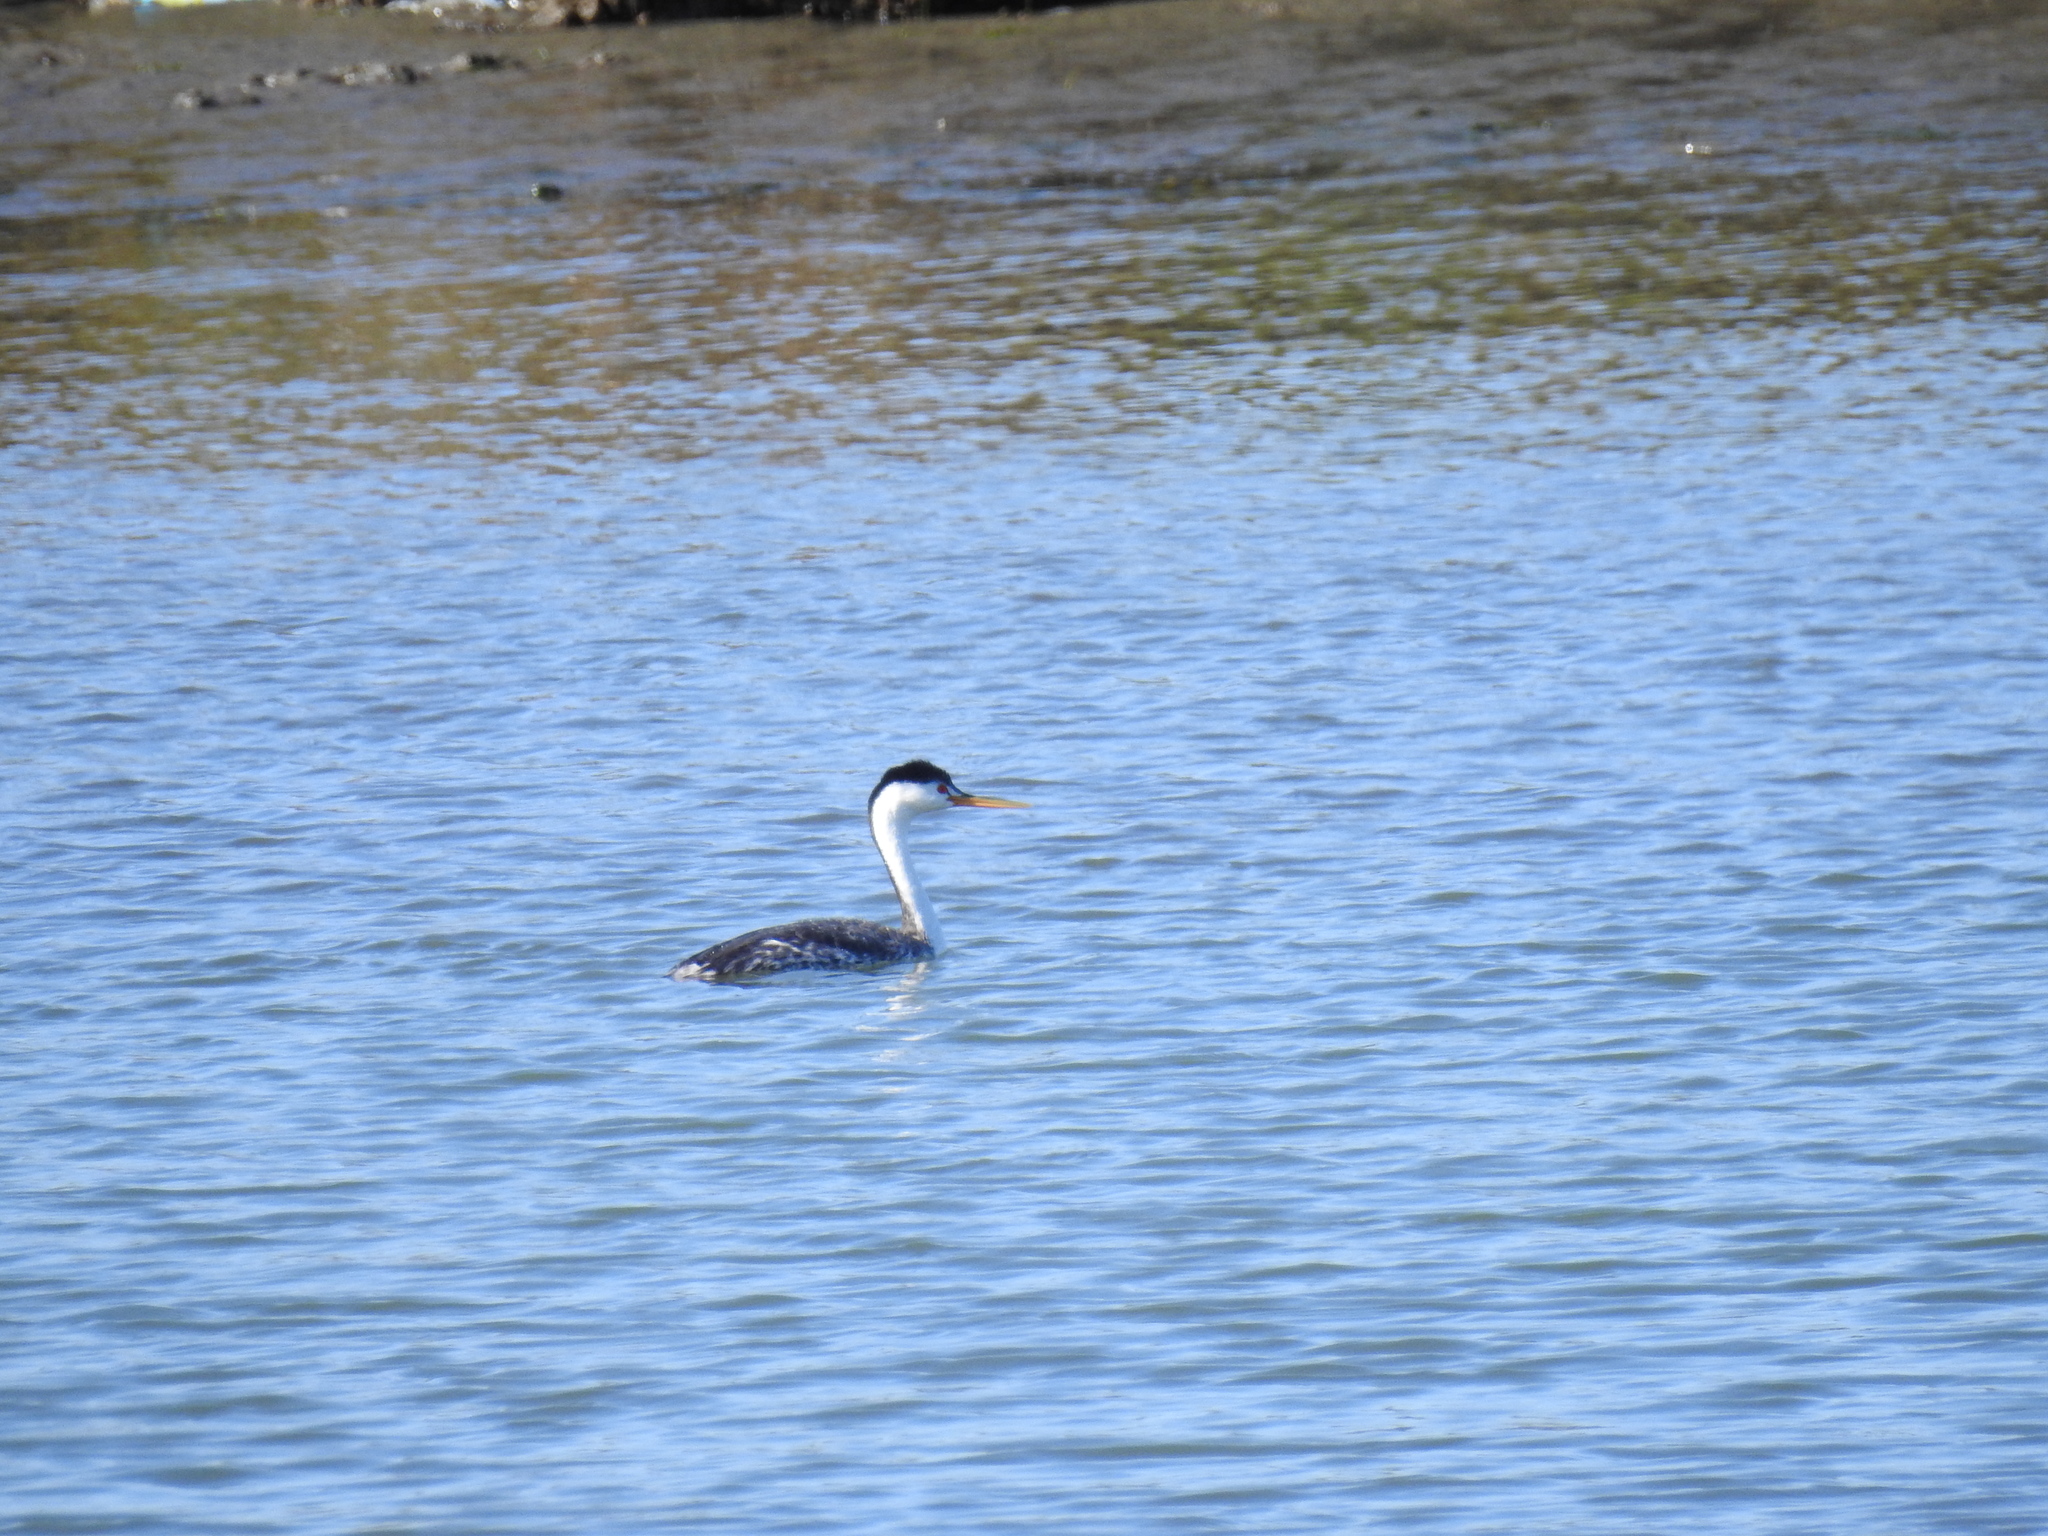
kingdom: Animalia
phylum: Chordata
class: Aves
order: Podicipediformes
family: Podicipedidae
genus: Aechmophorus
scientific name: Aechmophorus clarkii
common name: Clark's grebe
